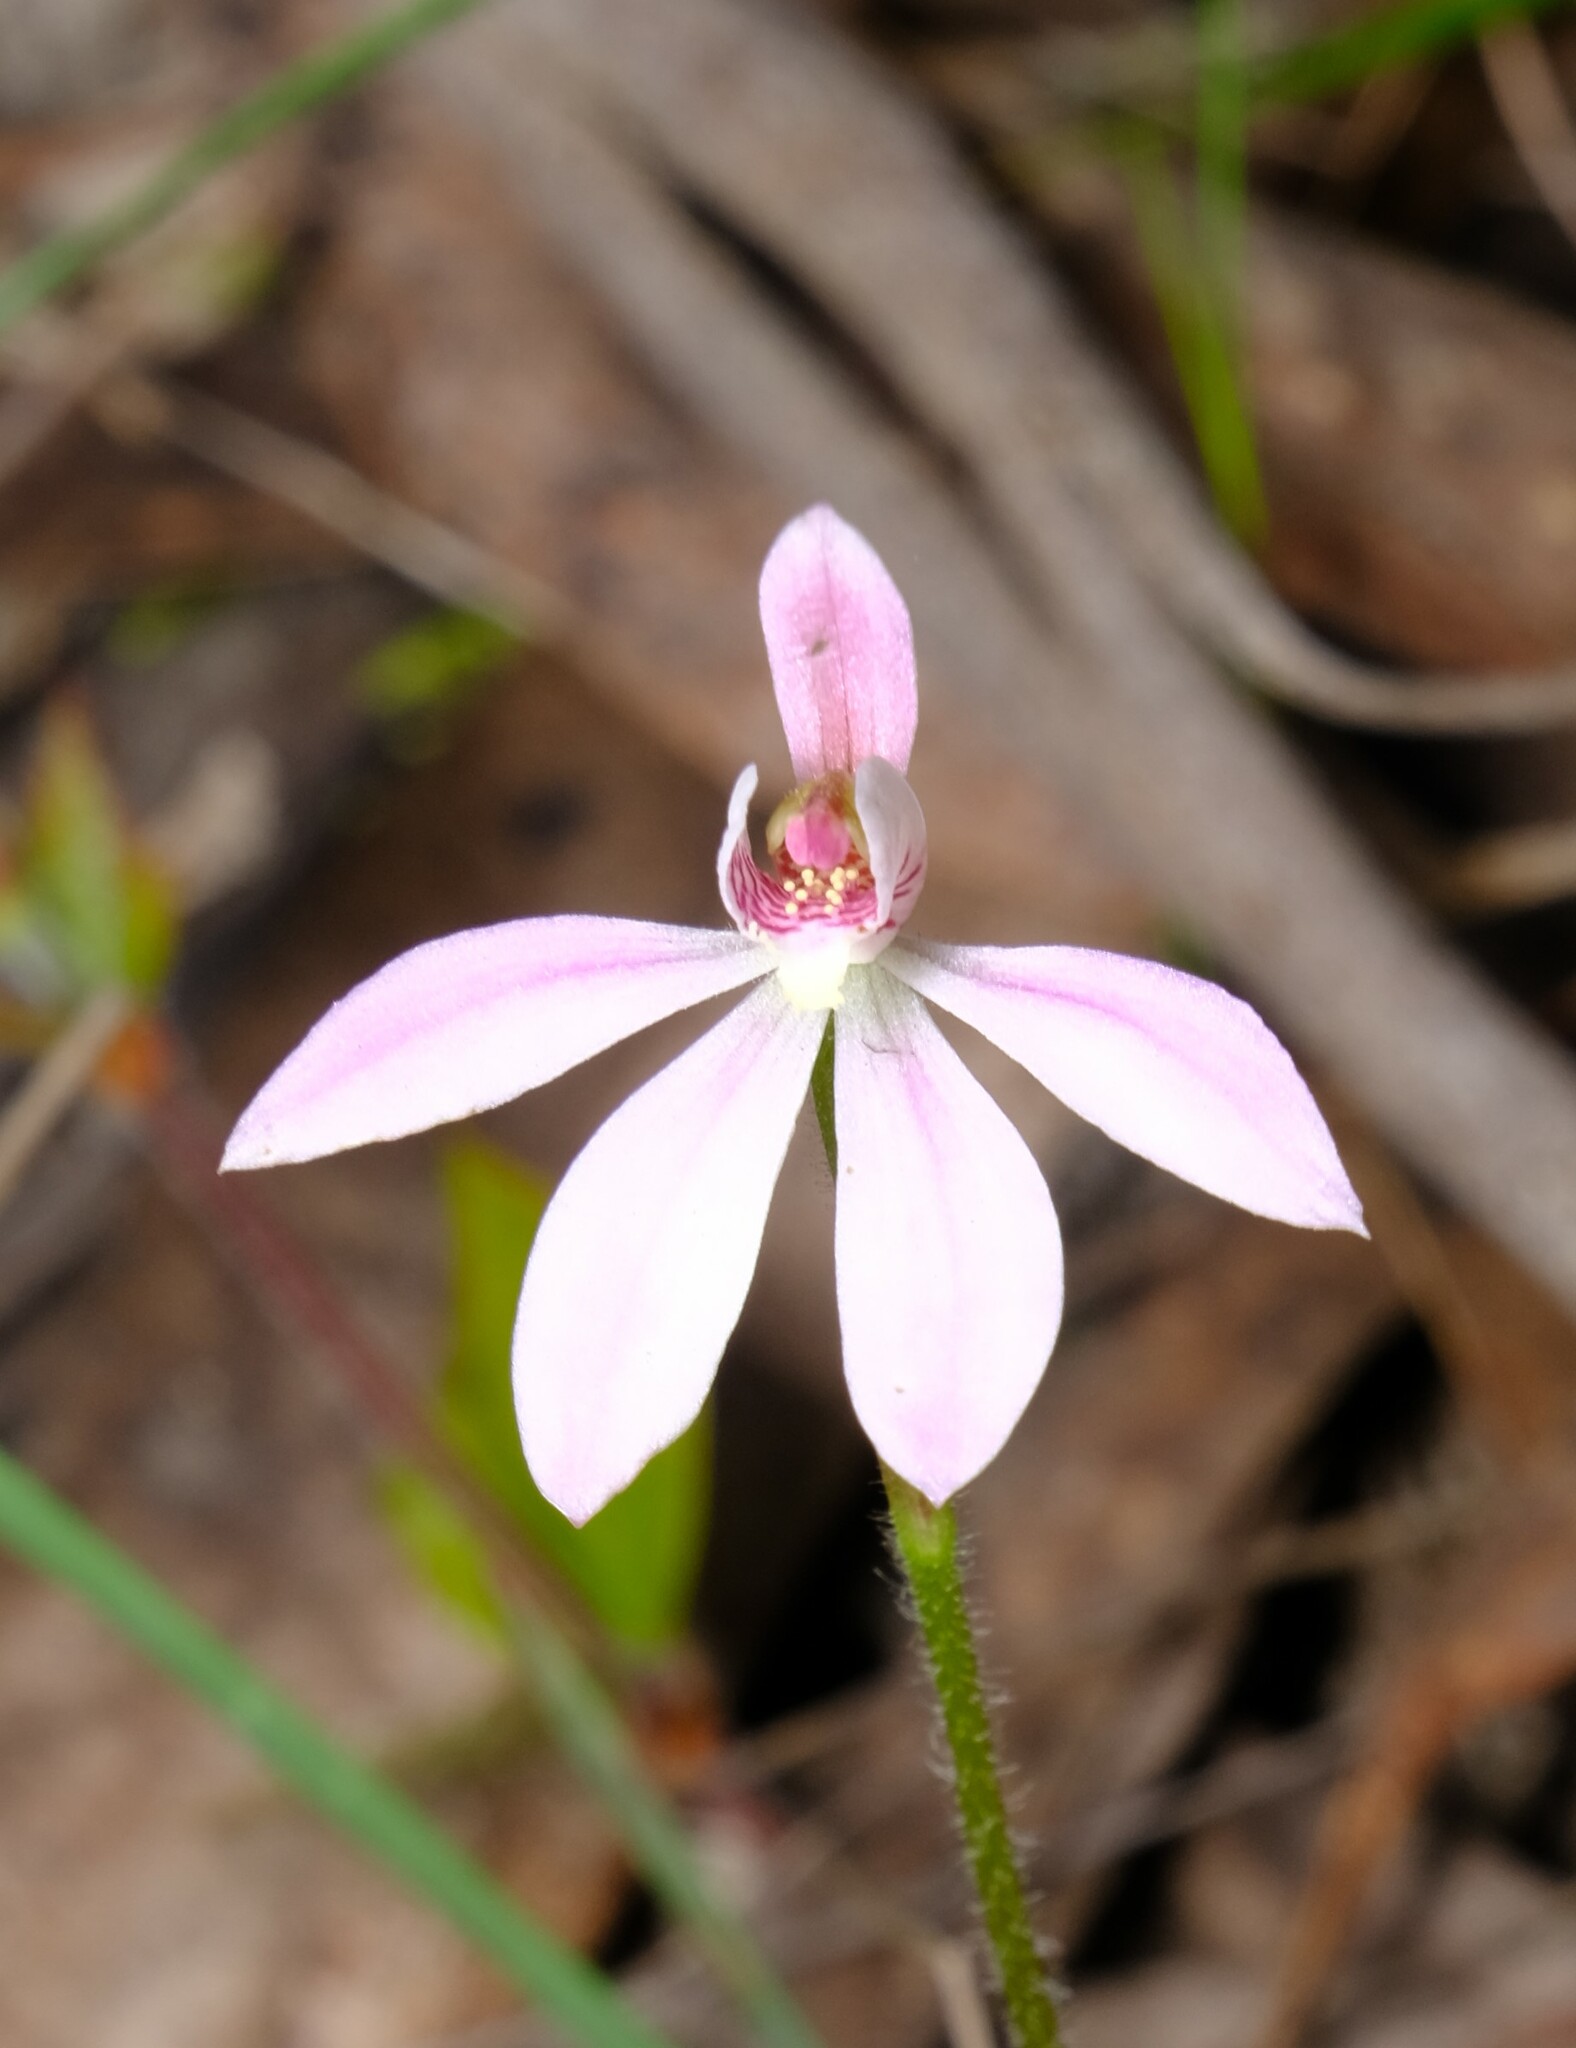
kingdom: Plantae
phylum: Tracheophyta
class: Liliopsida
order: Asparagales
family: Orchidaceae
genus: Caladenia
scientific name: Caladenia carnea
